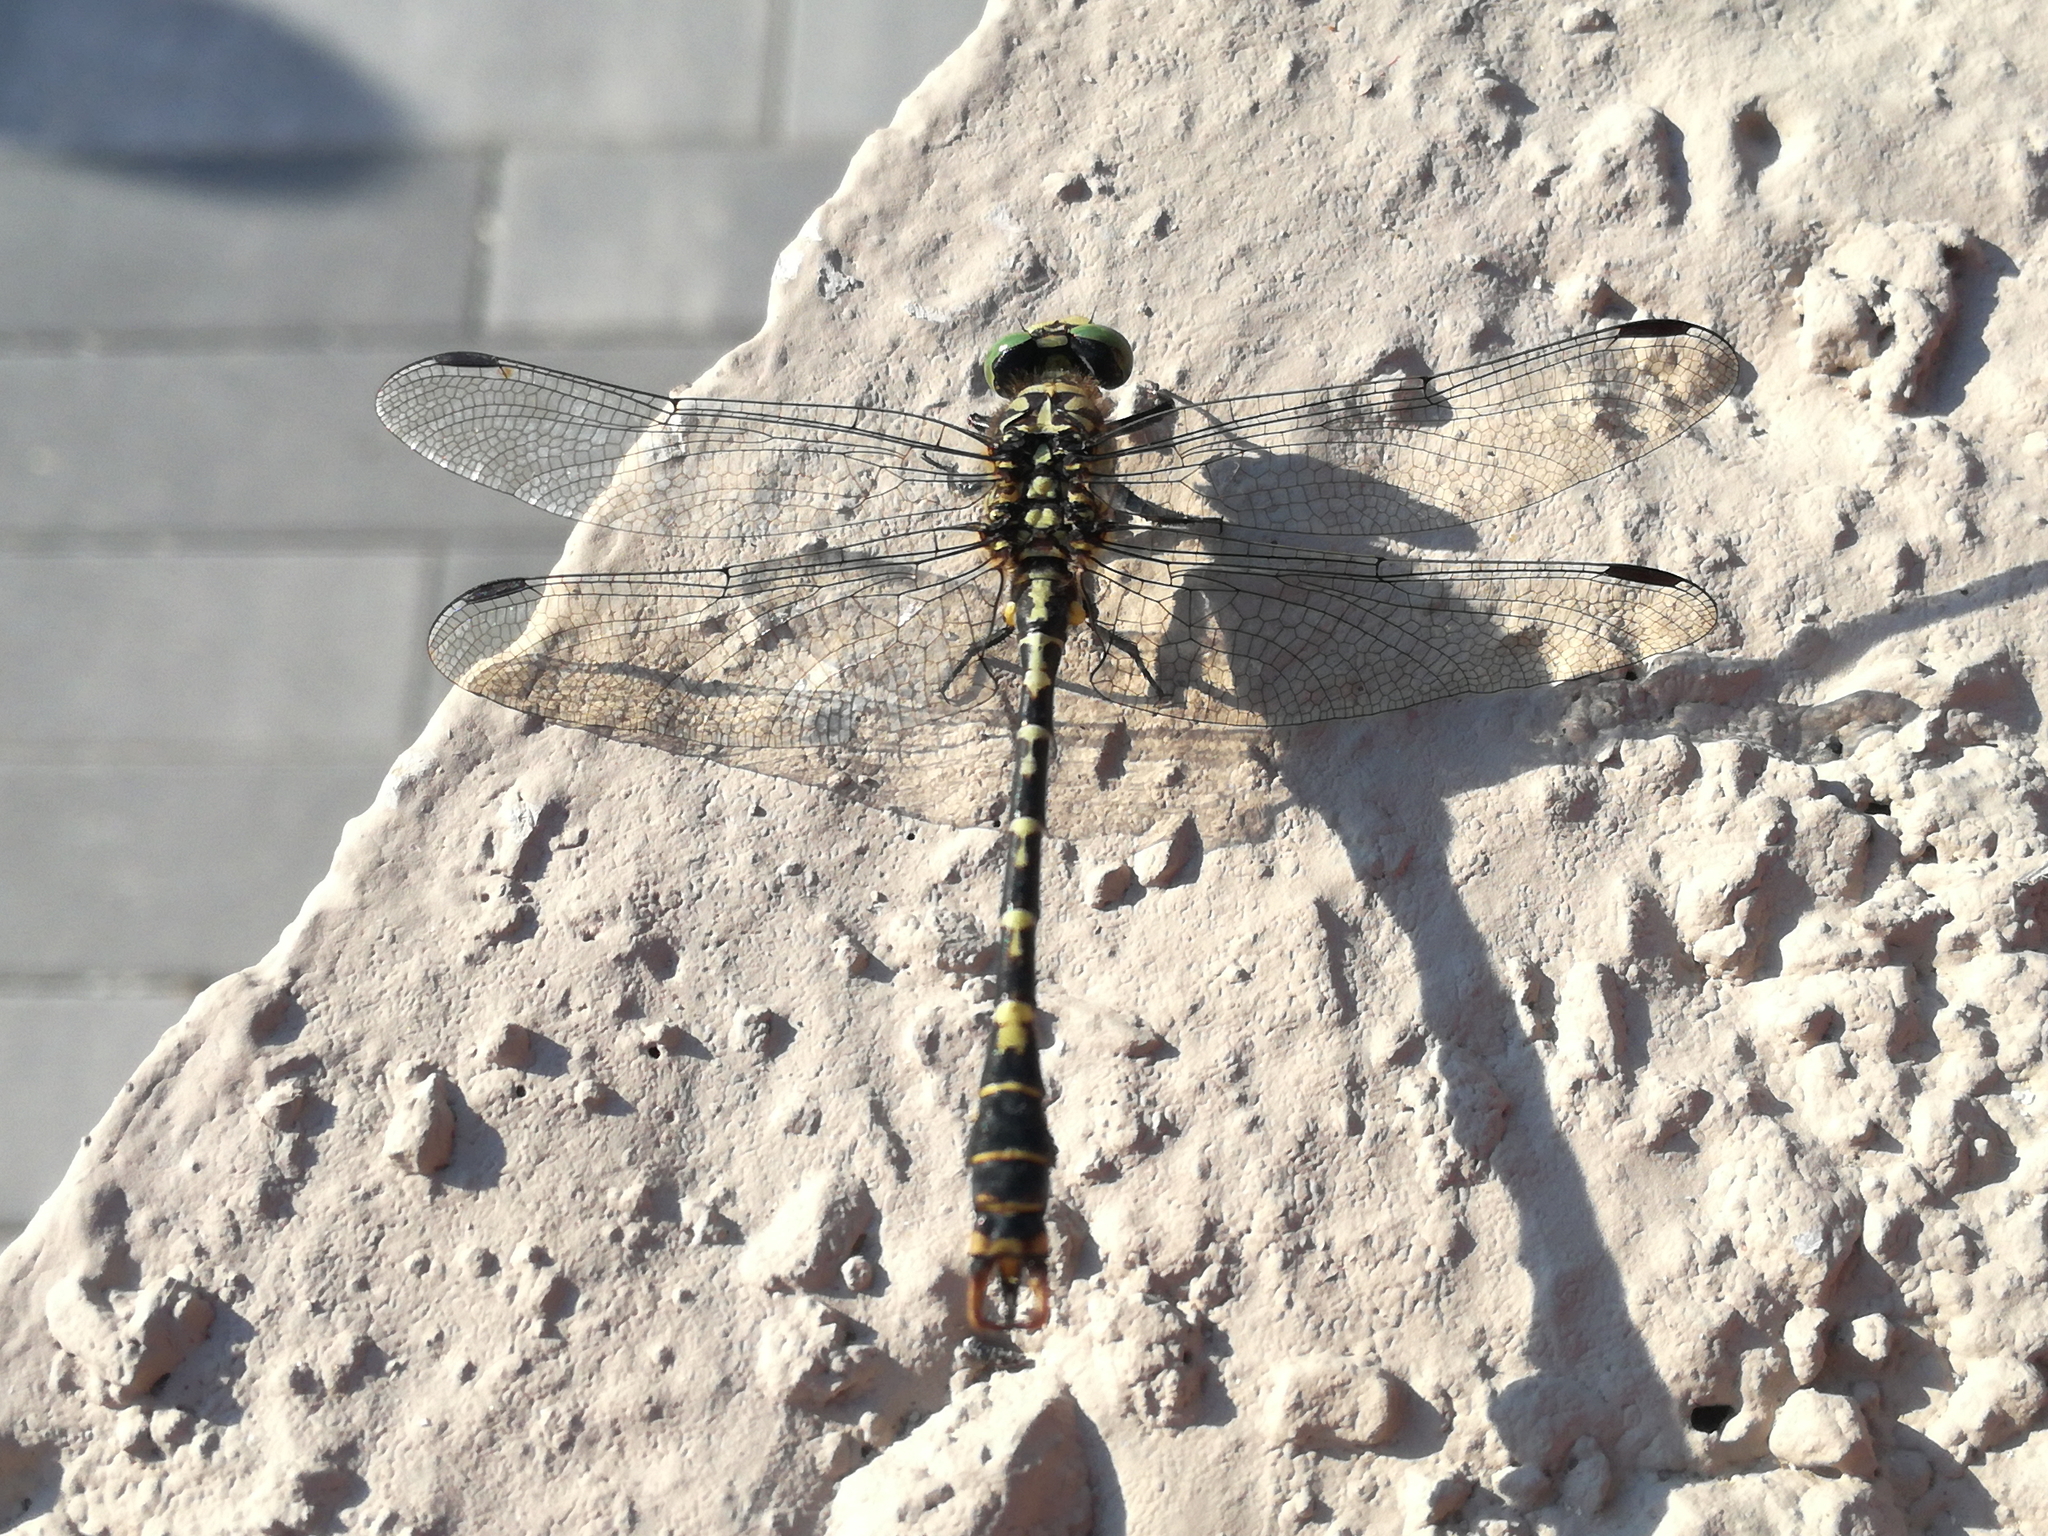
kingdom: Animalia
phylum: Arthropoda
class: Insecta
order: Odonata
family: Gomphidae
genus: Onychogomphus
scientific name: Onychogomphus forcipatus
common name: Small pincertail
